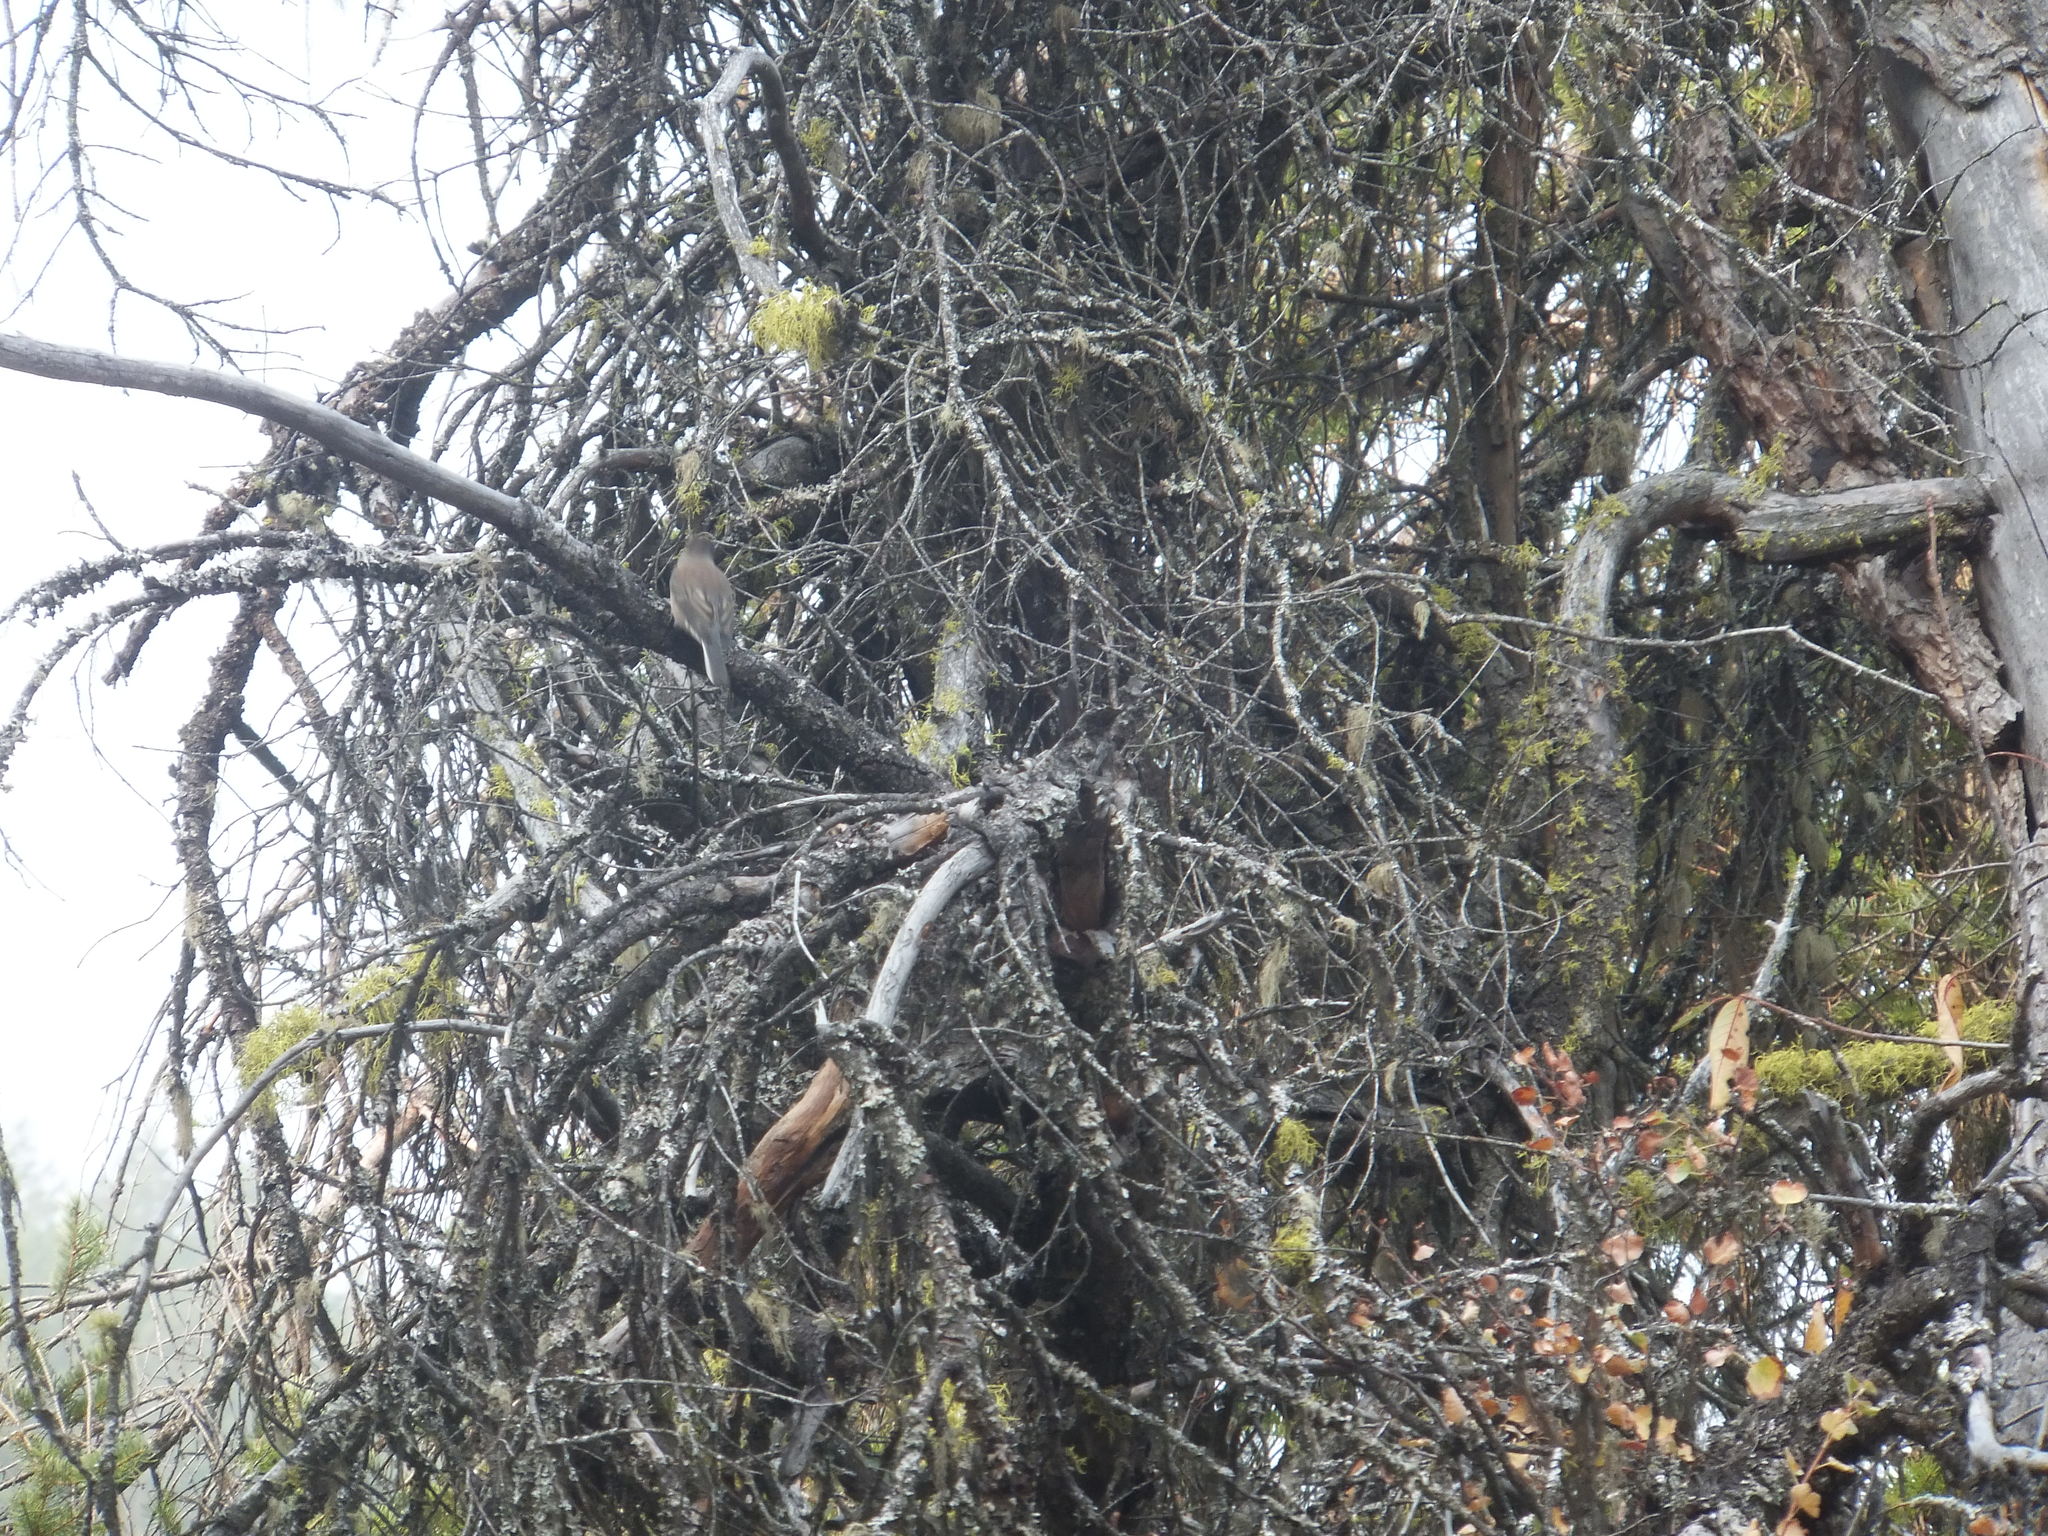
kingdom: Animalia
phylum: Chordata
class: Aves
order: Passeriformes
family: Passerellidae
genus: Junco
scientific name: Junco hyemalis
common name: Dark-eyed junco
